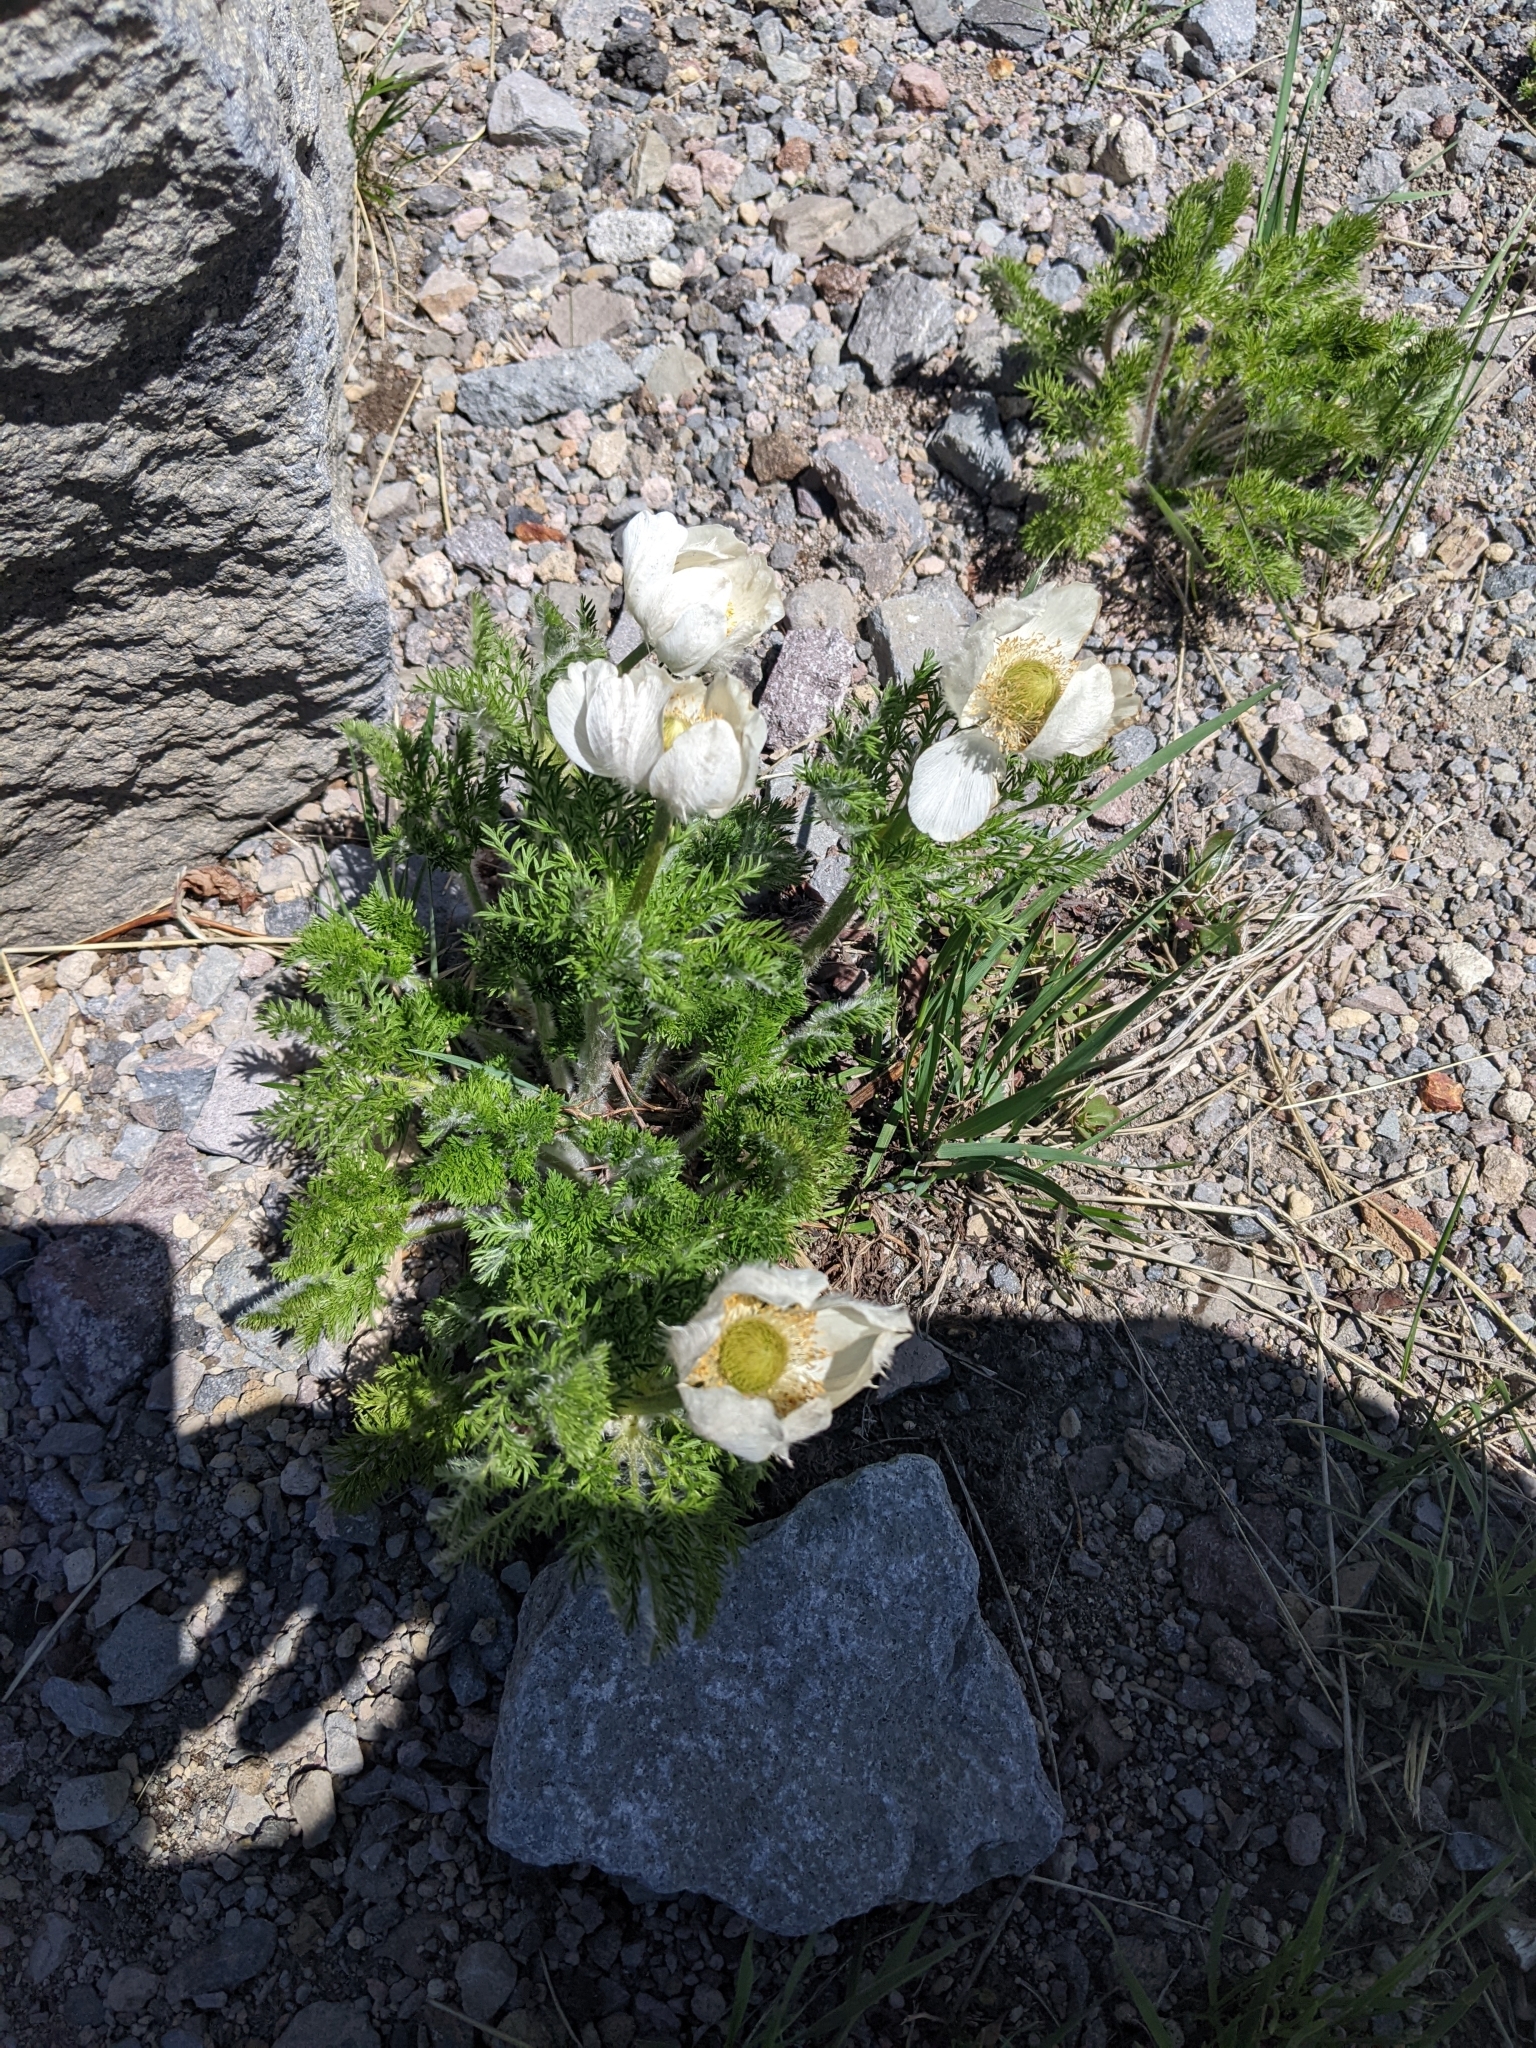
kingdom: Plantae
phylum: Tracheophyta
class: Magnoliopsida
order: Ranunculales
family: Ranunculaceae
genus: Pulsatilla
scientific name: Pulsatilla occidentalis
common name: Mountain pasqueflower
